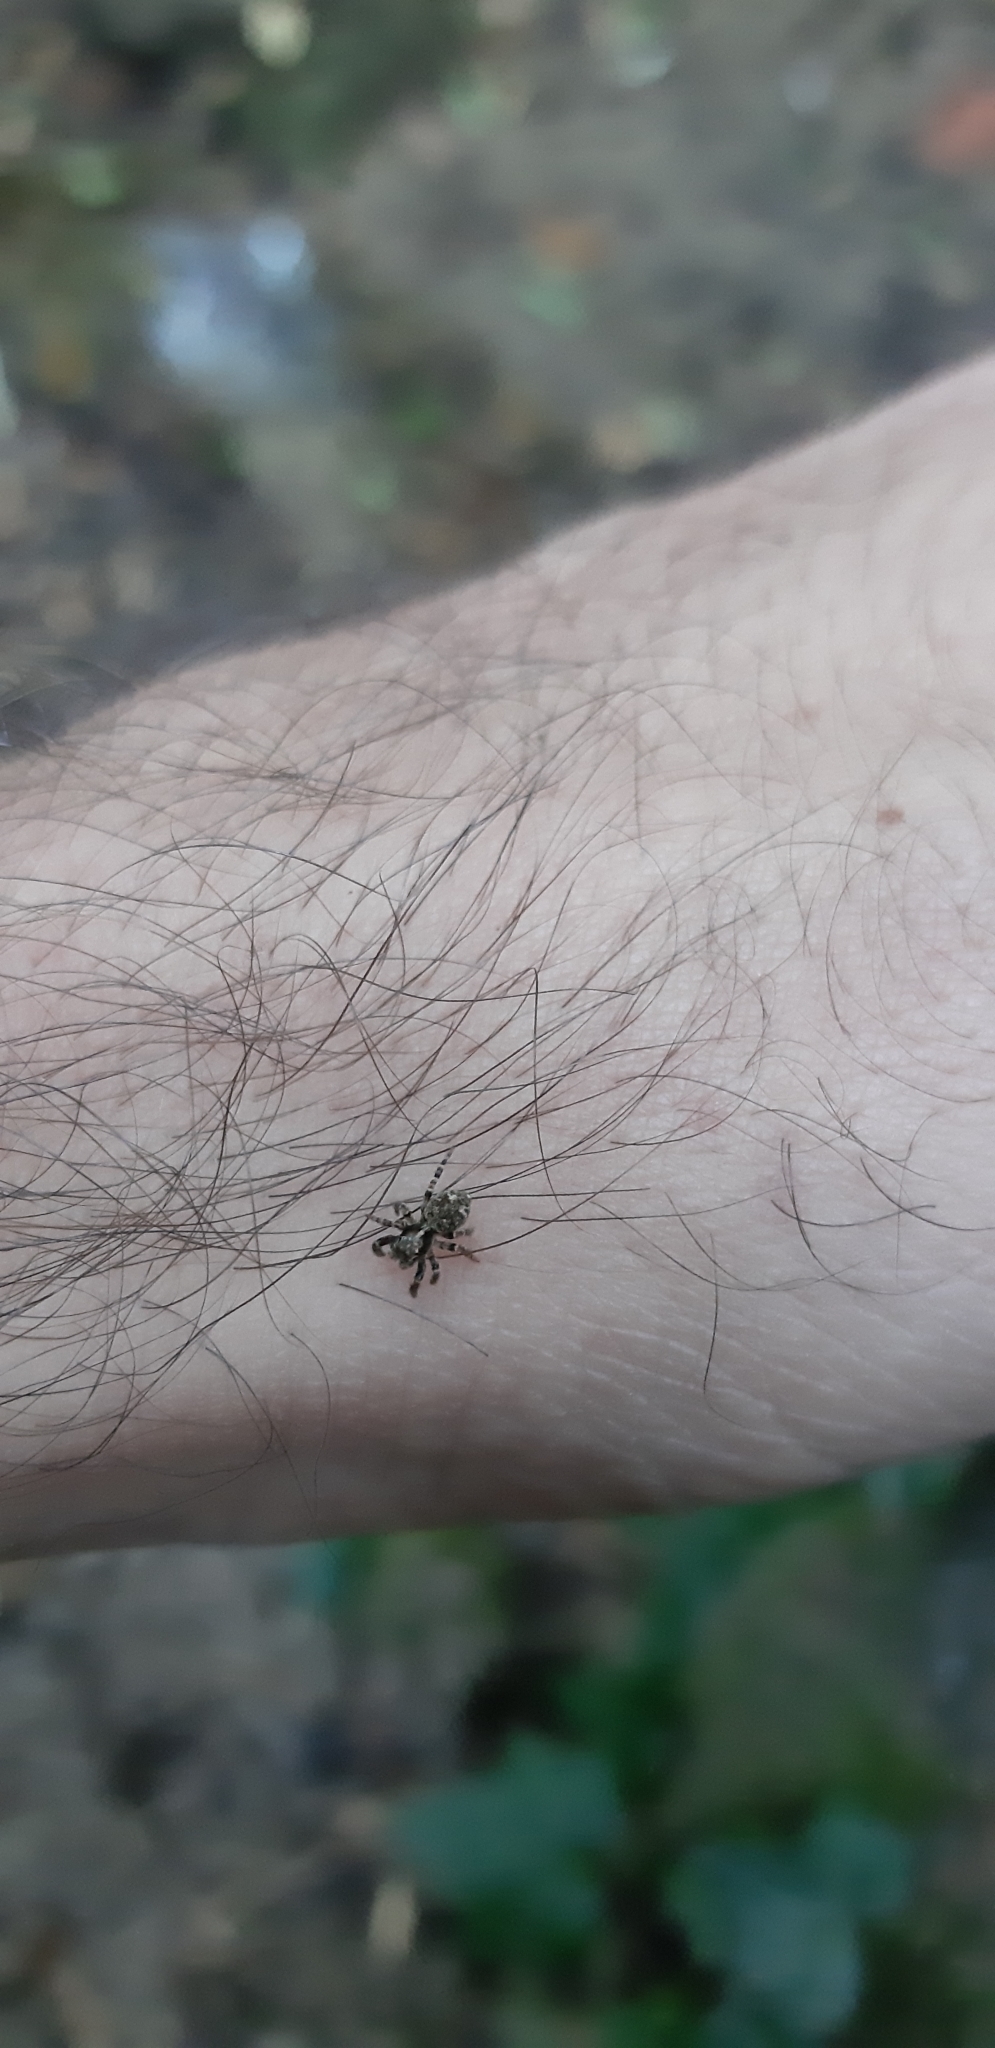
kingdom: Animalia
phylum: Arthropoda
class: Arachnida
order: Araneae
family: Salticidae
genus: Pseudeuophrys
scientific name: Pseudeuophrys erratica
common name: Jumping spider
